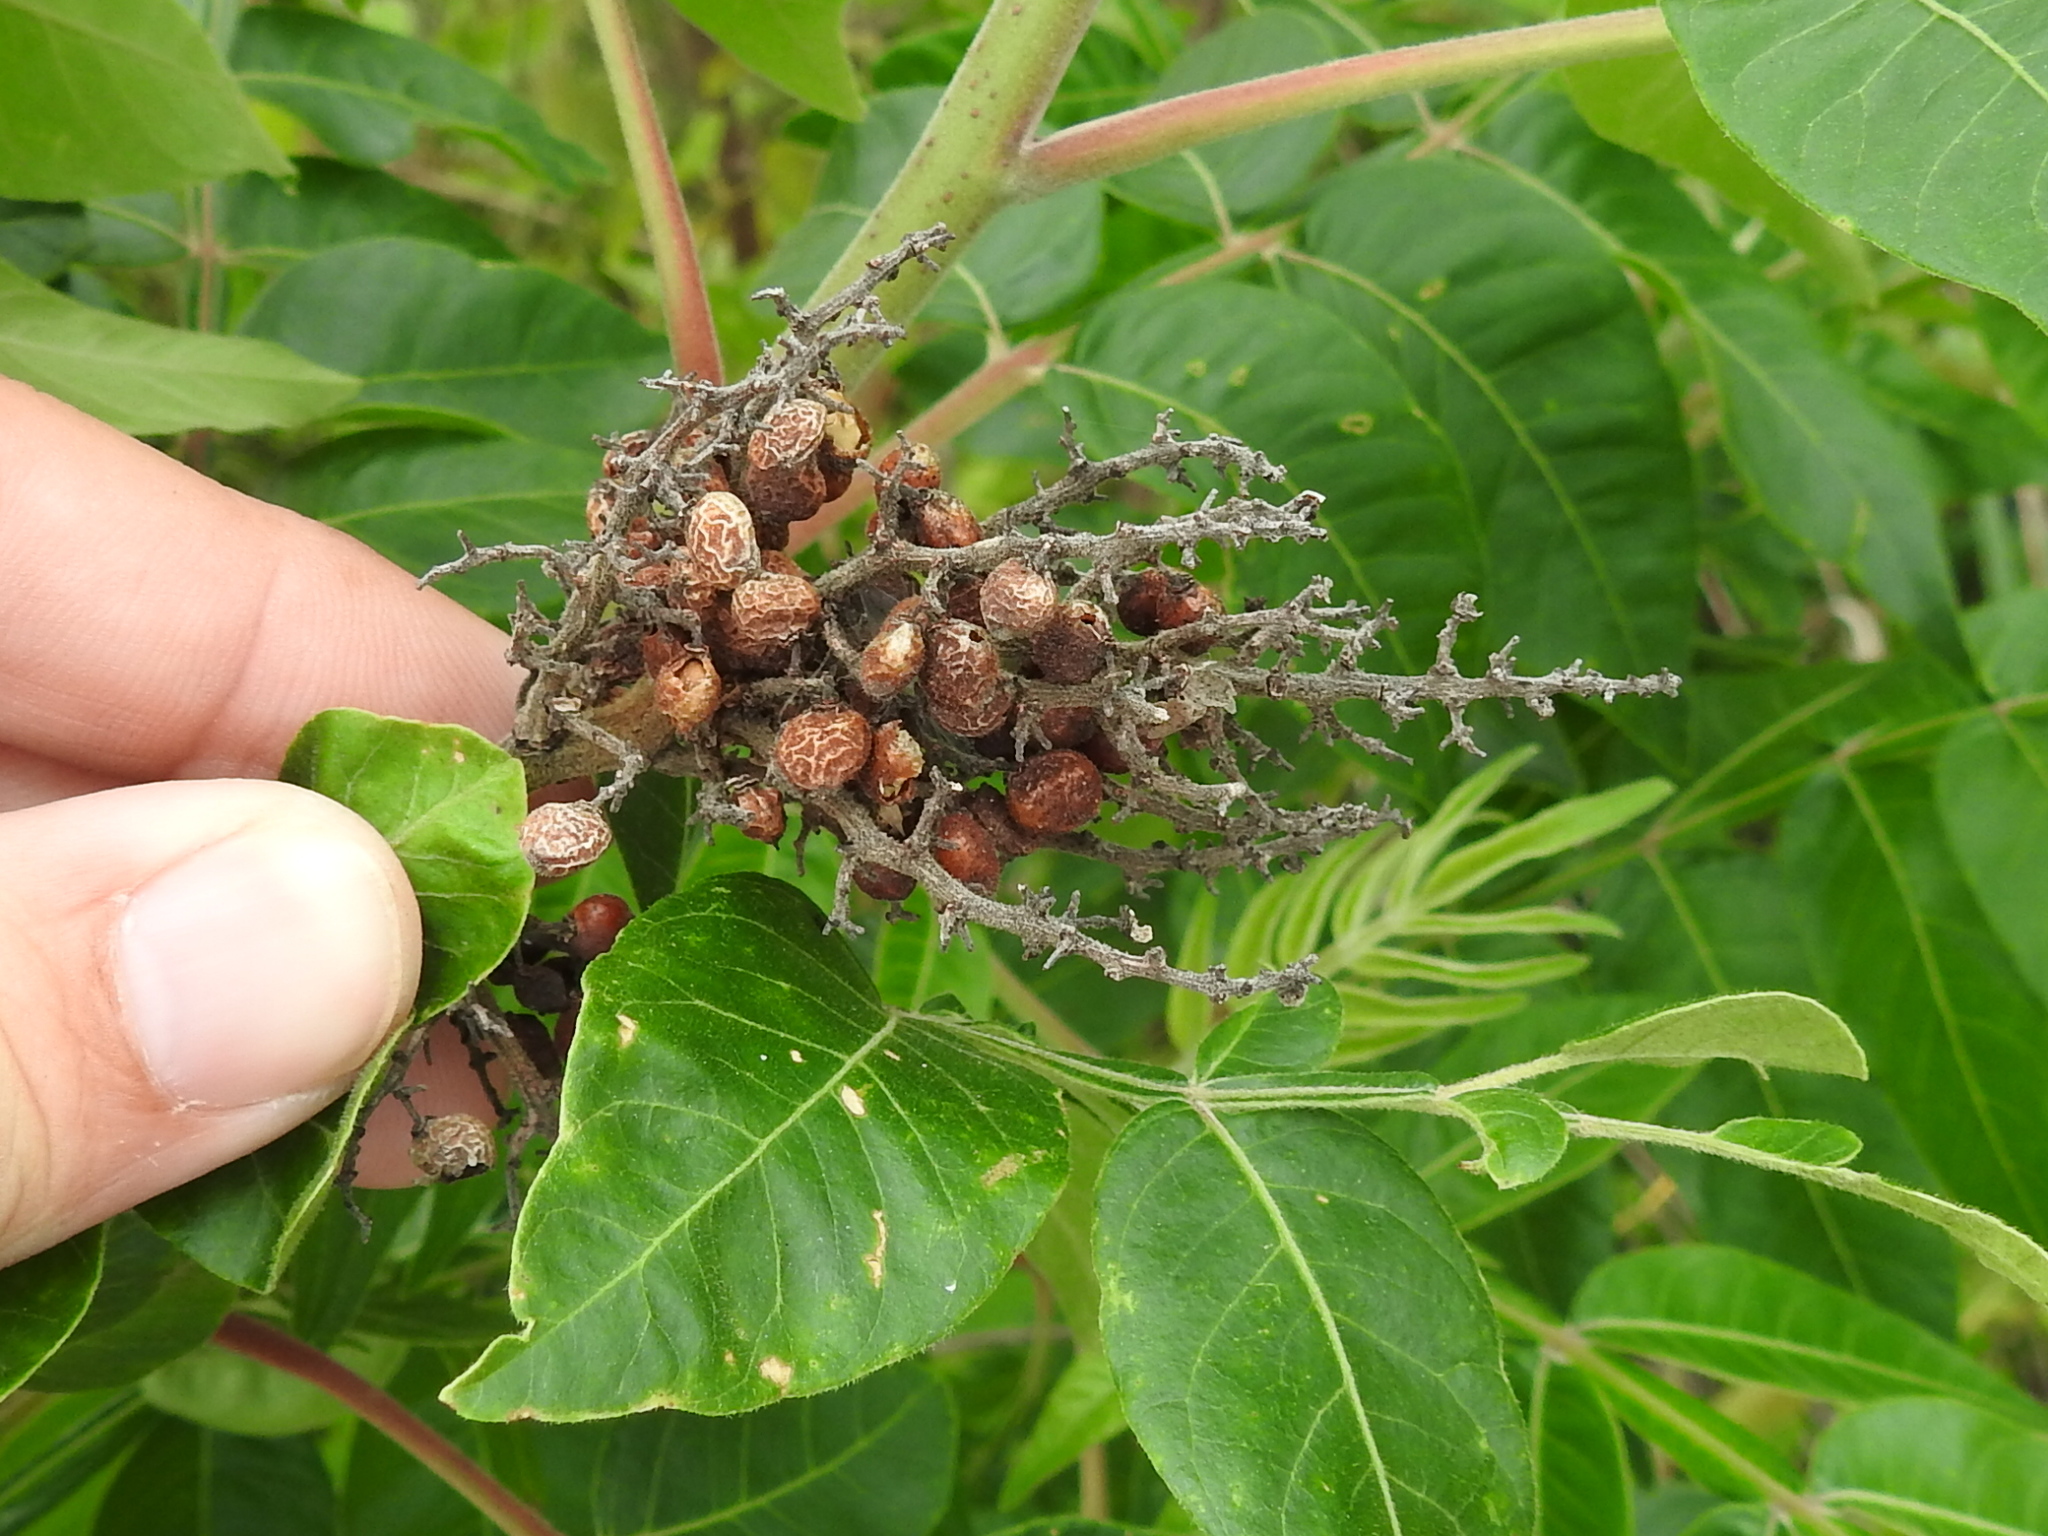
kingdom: Plantae
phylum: Tracheophyta
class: Magnoliopsida
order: Sapindales
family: Anacardiaceae
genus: Rhus
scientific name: Rhus copallina
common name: Shining sumac
